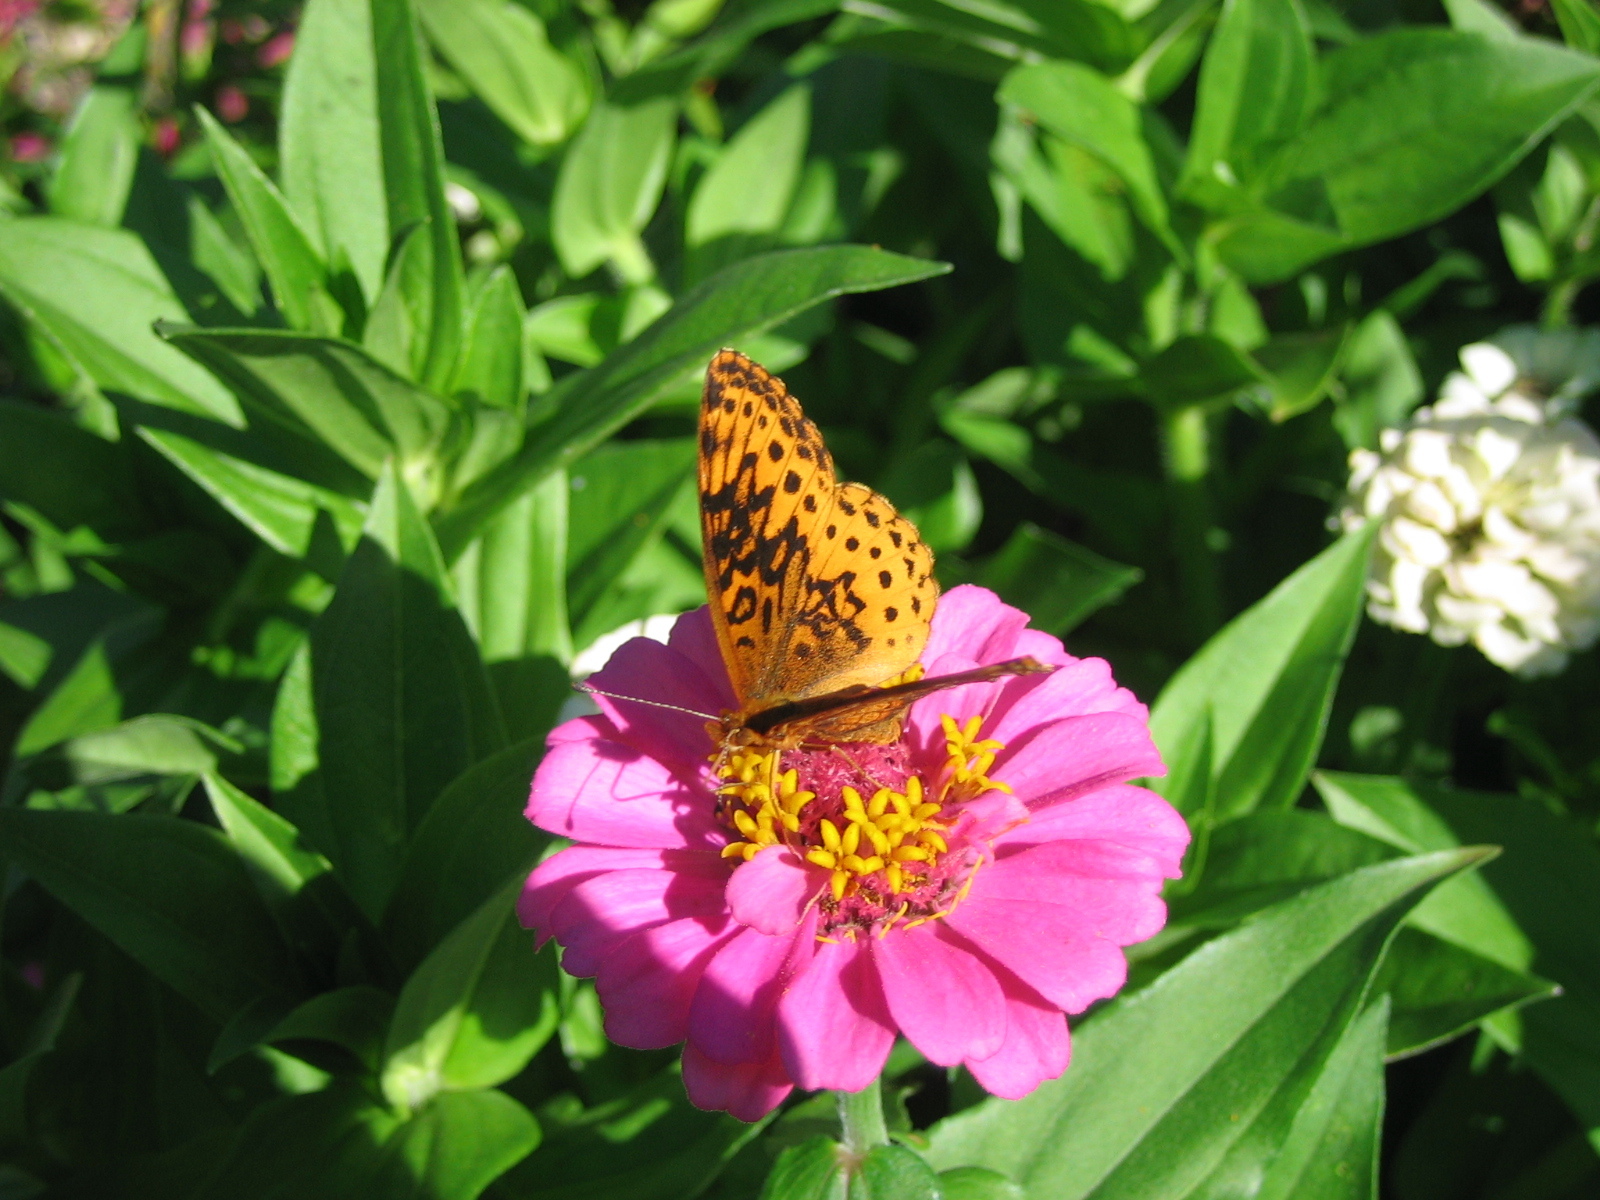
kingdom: Animalia
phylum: Arthropoda
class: Insecta
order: Lepidoptera
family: Nymphalidae
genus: Clossiana
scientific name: Clossiana toddi
